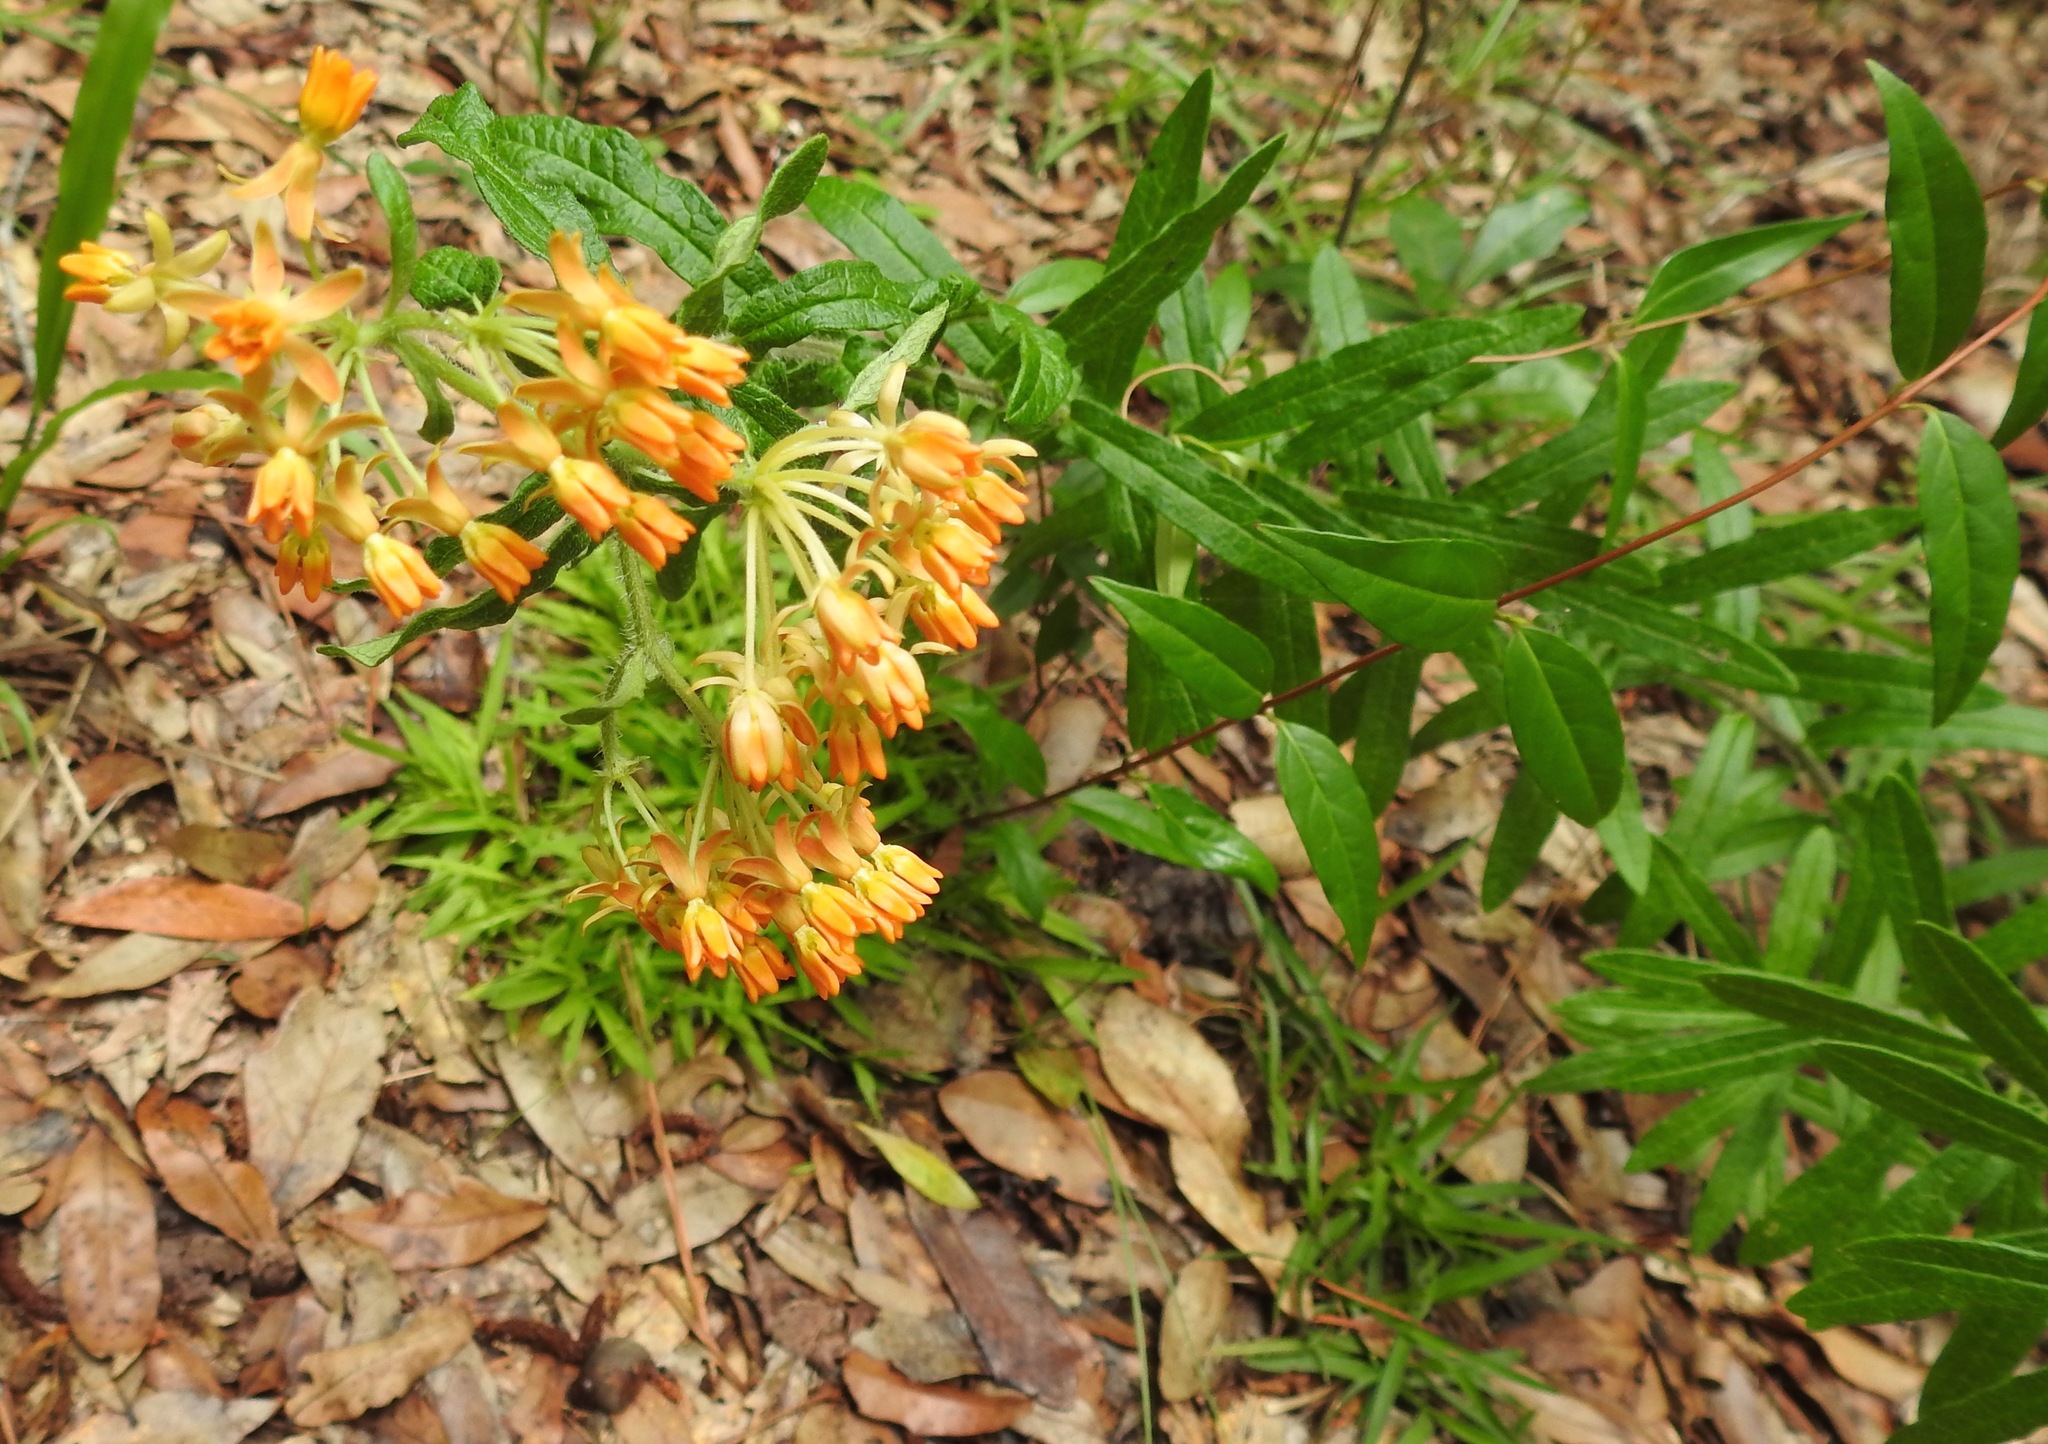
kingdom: Plantae
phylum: Tracheophyta
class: Magnoliopsida
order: Gentianales
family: Apocynaceae
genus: Asclepias
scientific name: Asclepias tuberosa
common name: Butterfly milkweed
